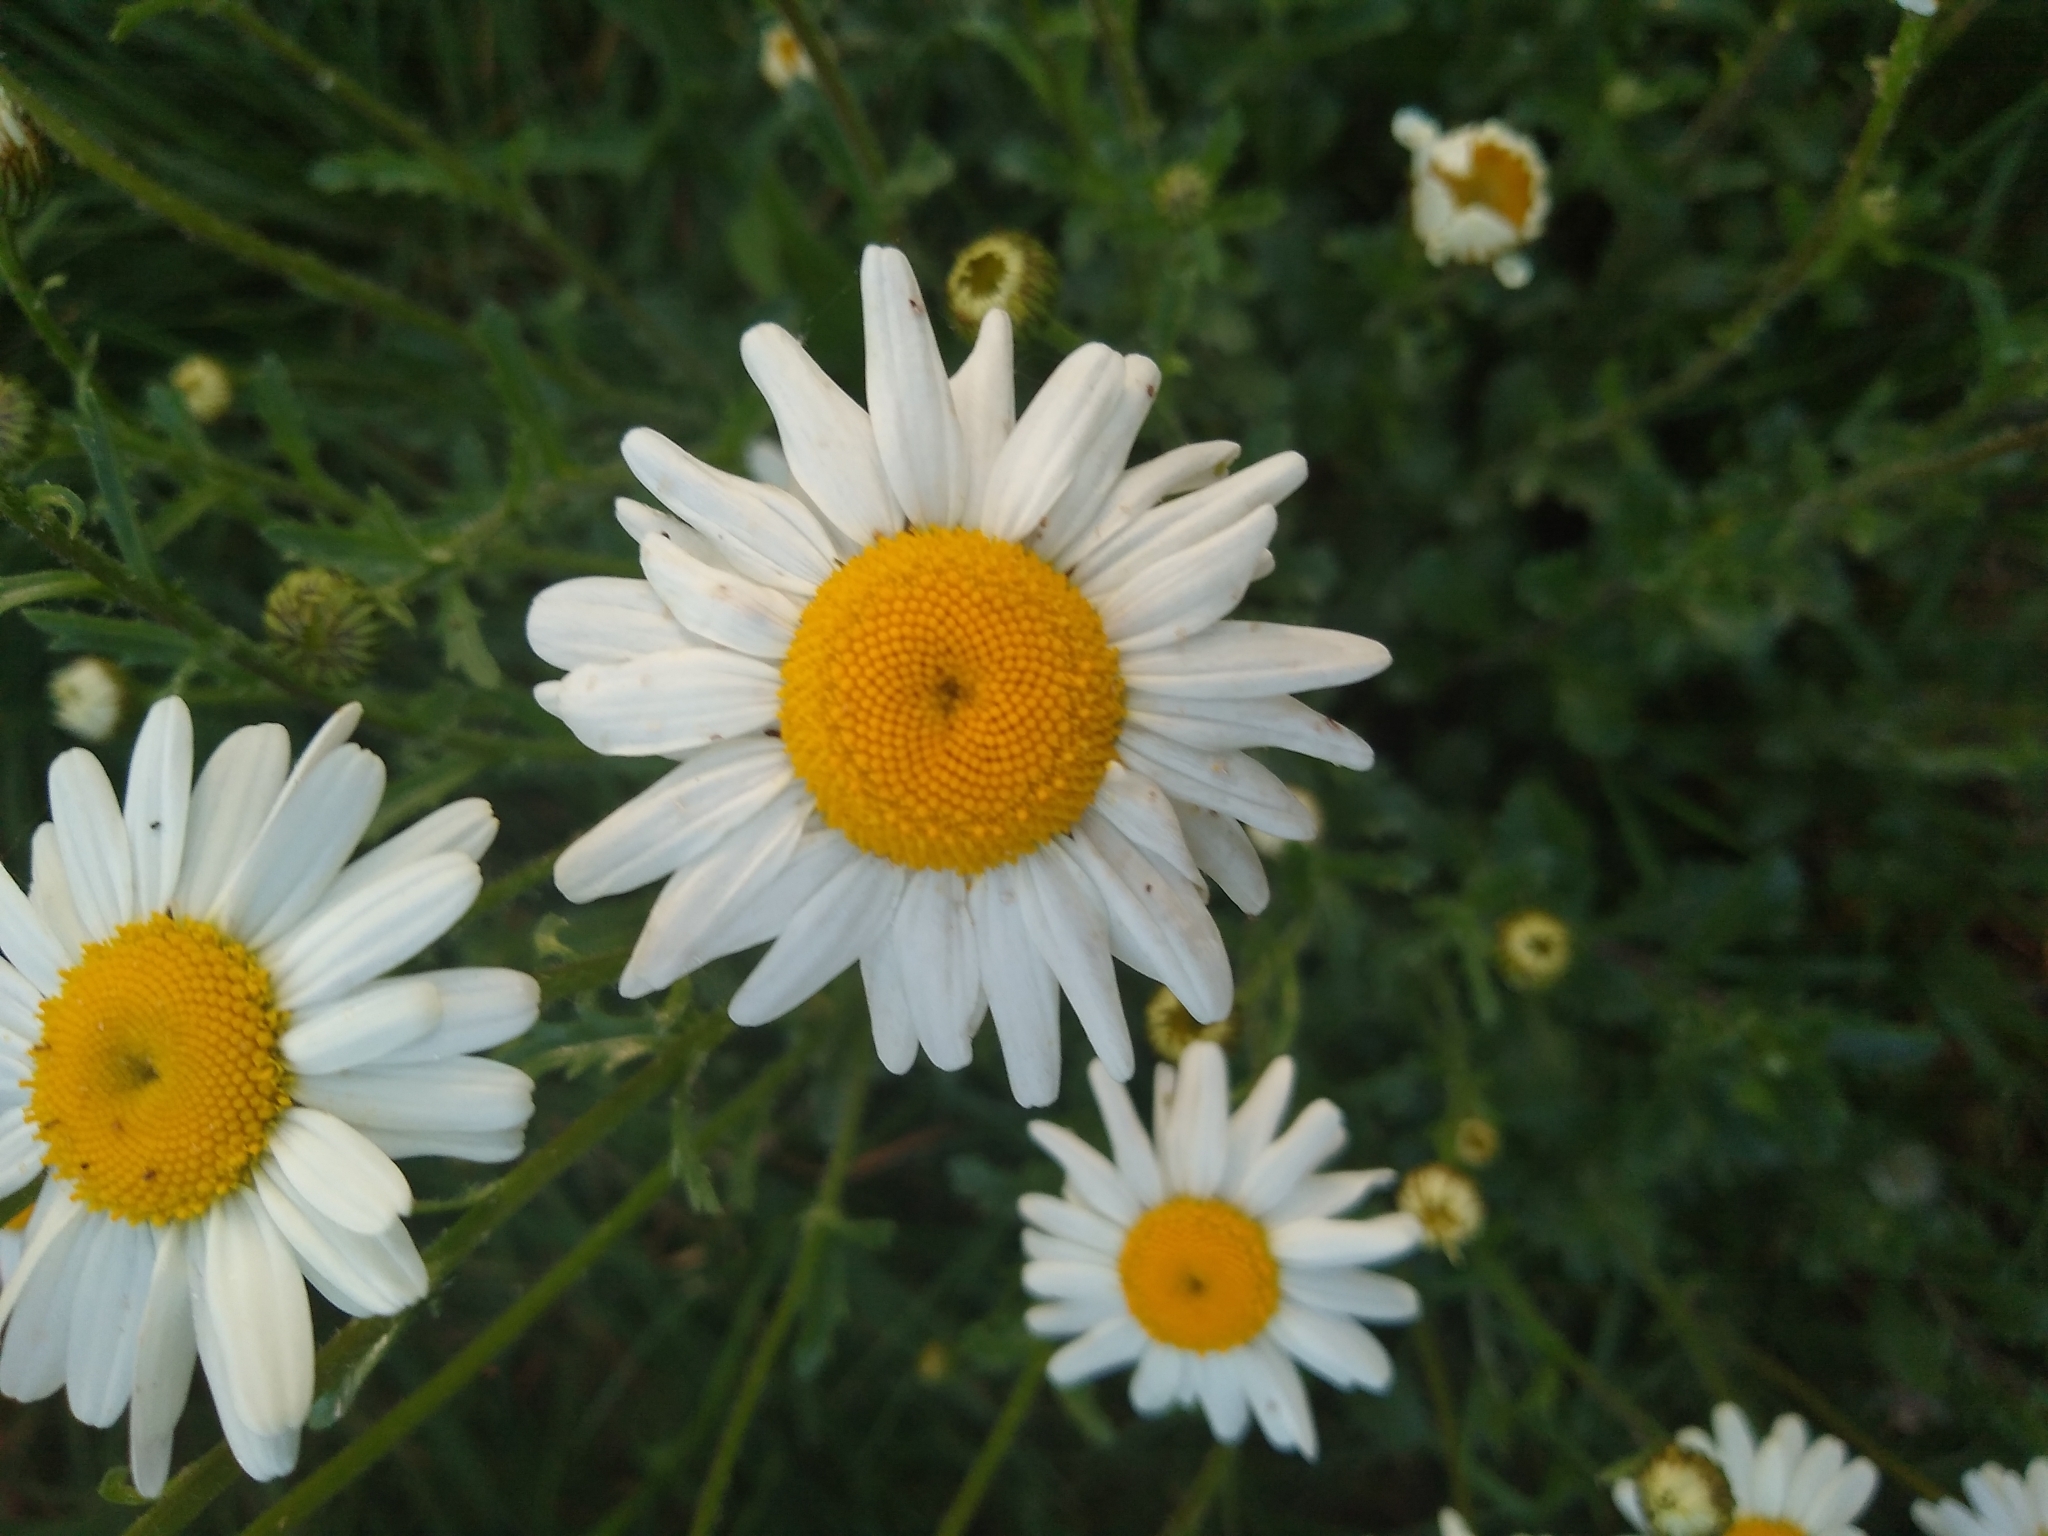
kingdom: Plantae
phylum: Tracheophyta
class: Magnoliopsida
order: Asterales
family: Asteraceae
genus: Leucanthemum
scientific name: Leucanthemum vulgare
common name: Oxeye daisy
